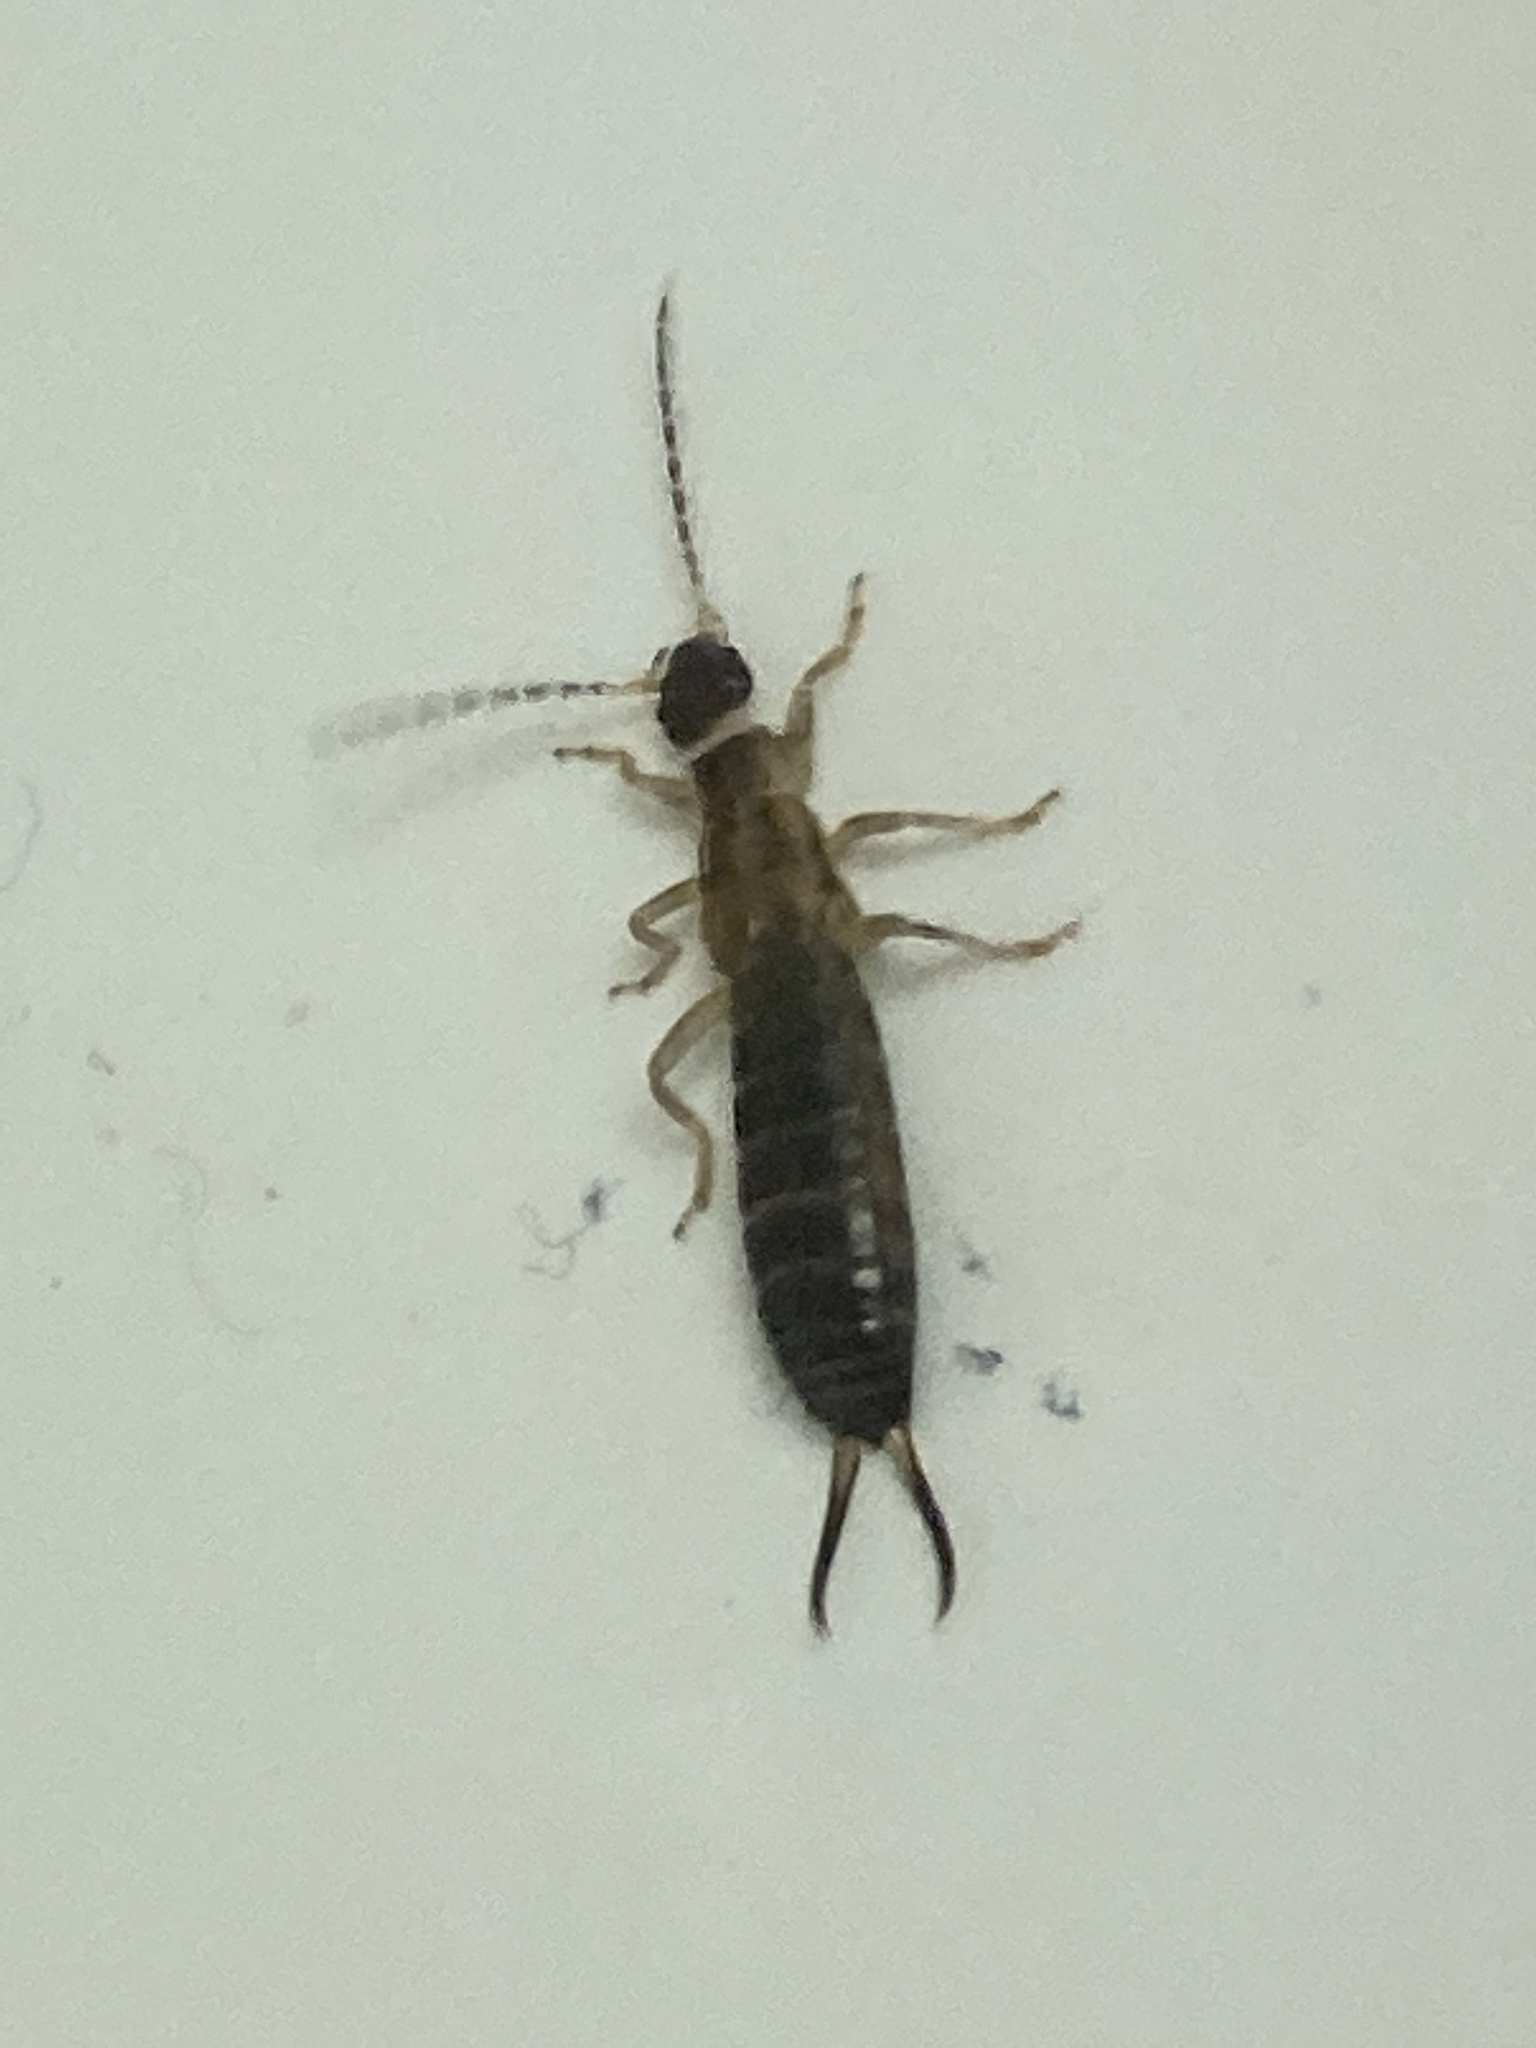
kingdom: Animalia
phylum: Arthropoda
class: Insecta
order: Dermaptera
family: Forficulidae
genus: Forficula
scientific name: Forficula
